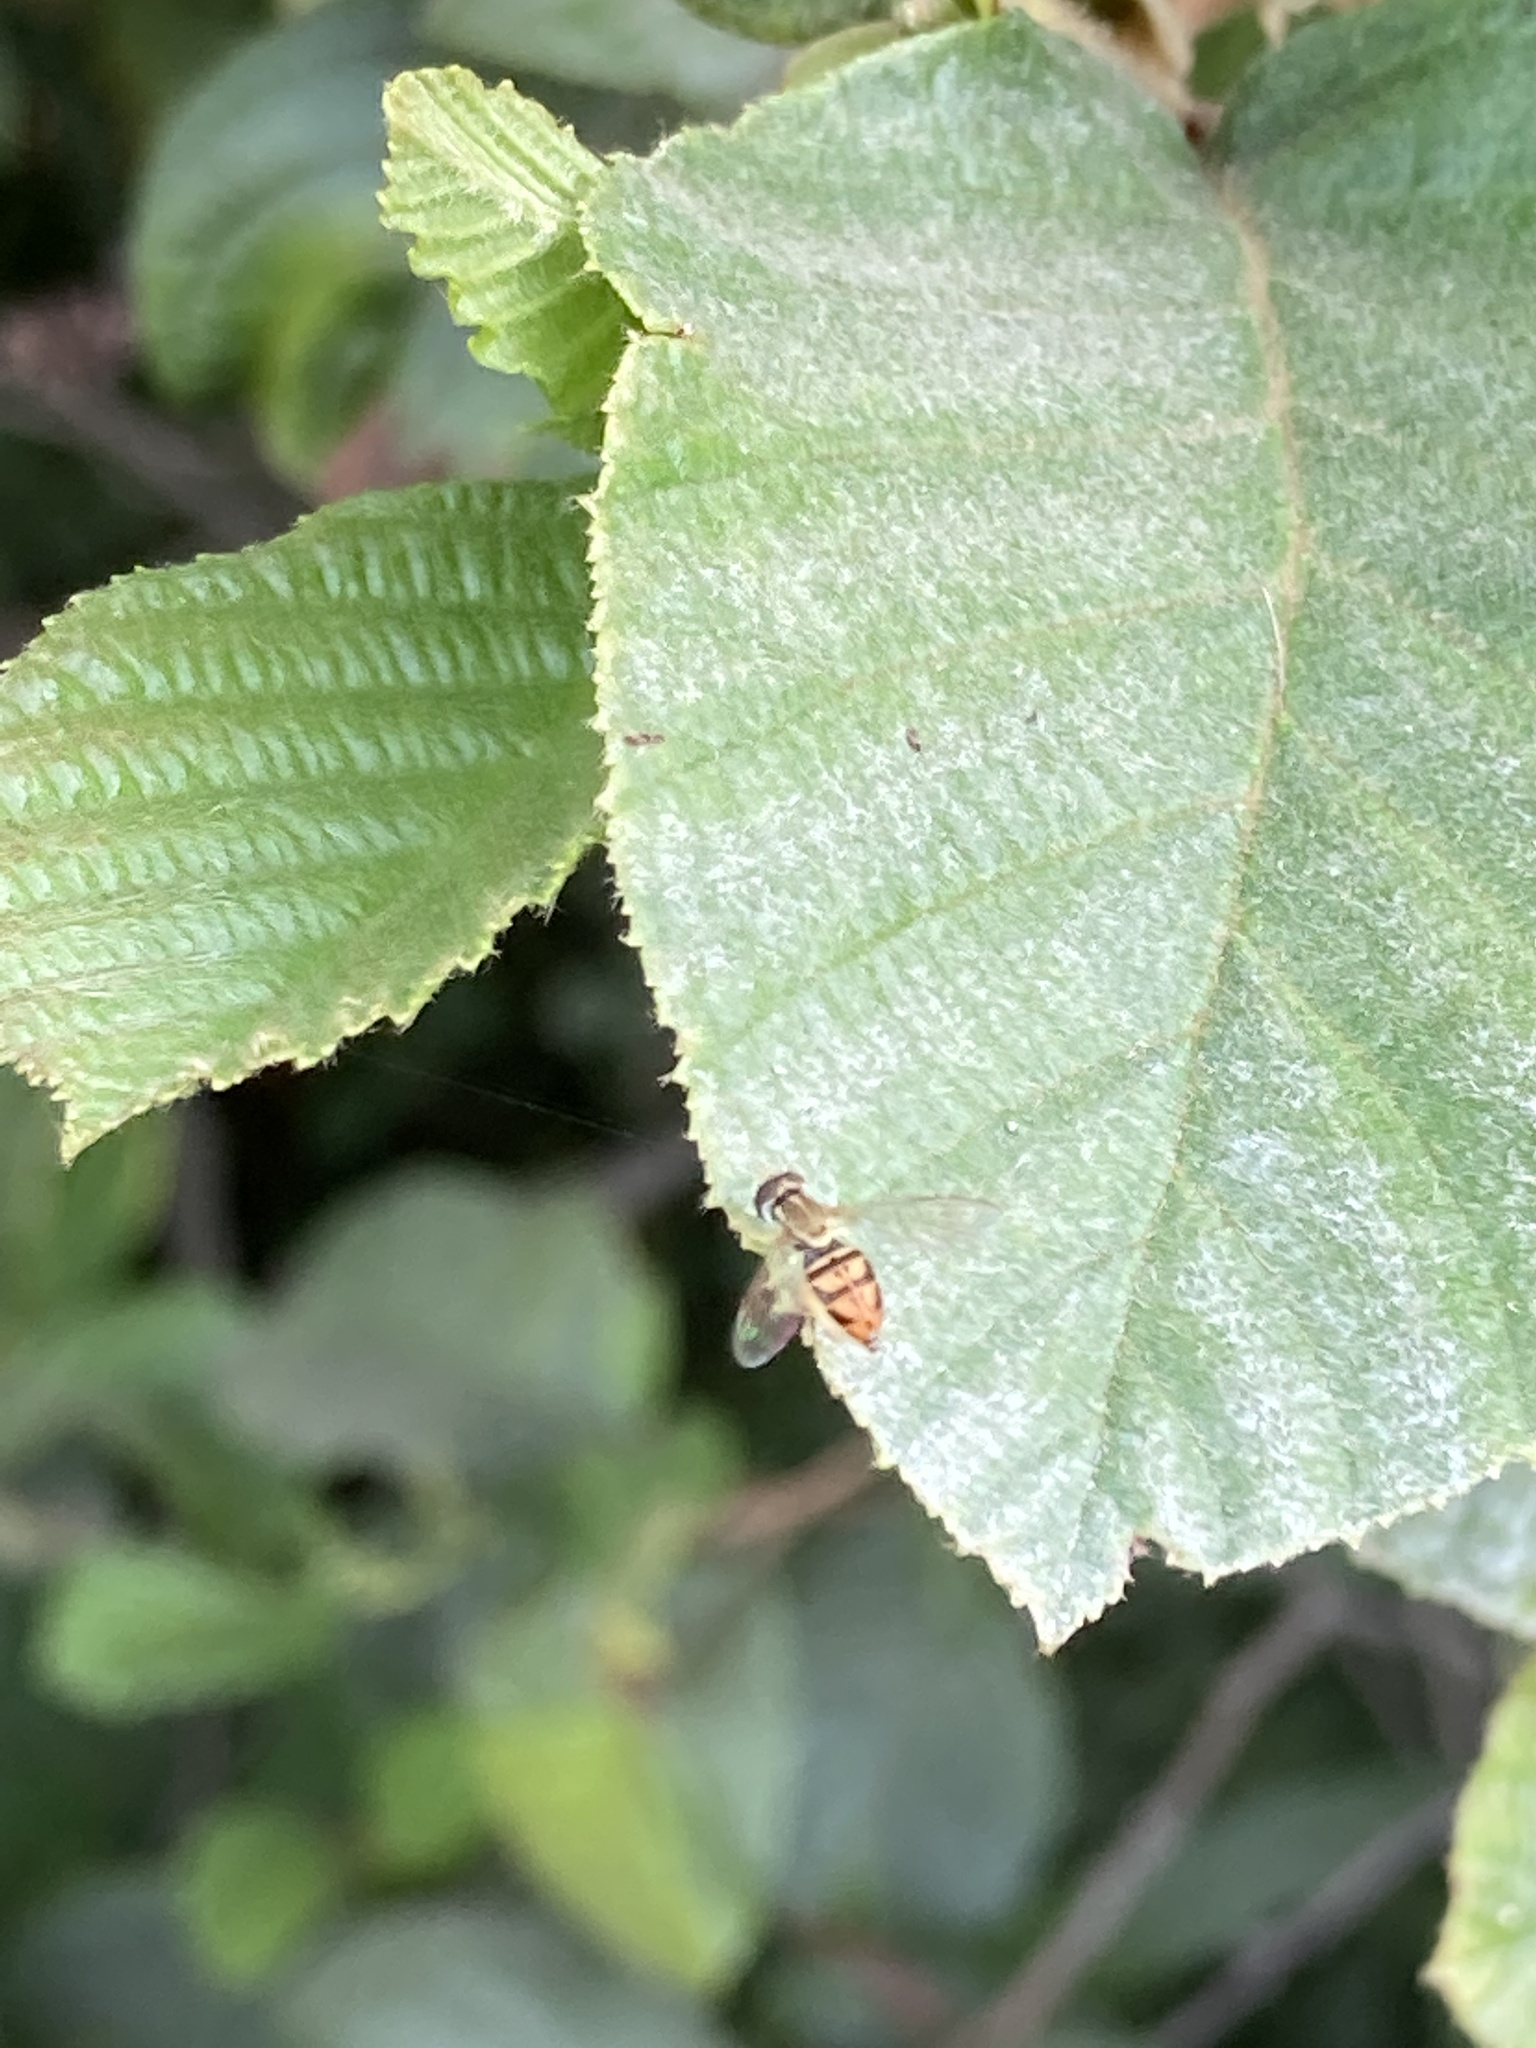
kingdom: Animalia
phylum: Arthropoda
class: Insecta
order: Diptera
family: Syrphidae
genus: Toxomerus
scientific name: Toxomerus marginatus
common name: Syrphid fly
